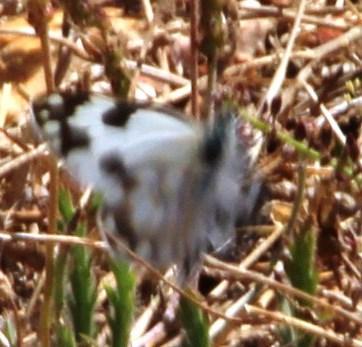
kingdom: Animalia
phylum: Arthropoda
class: Insecta
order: Lepidoptera
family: Pieridae
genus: Pontia
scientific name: Pontia helice
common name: Meadow white
